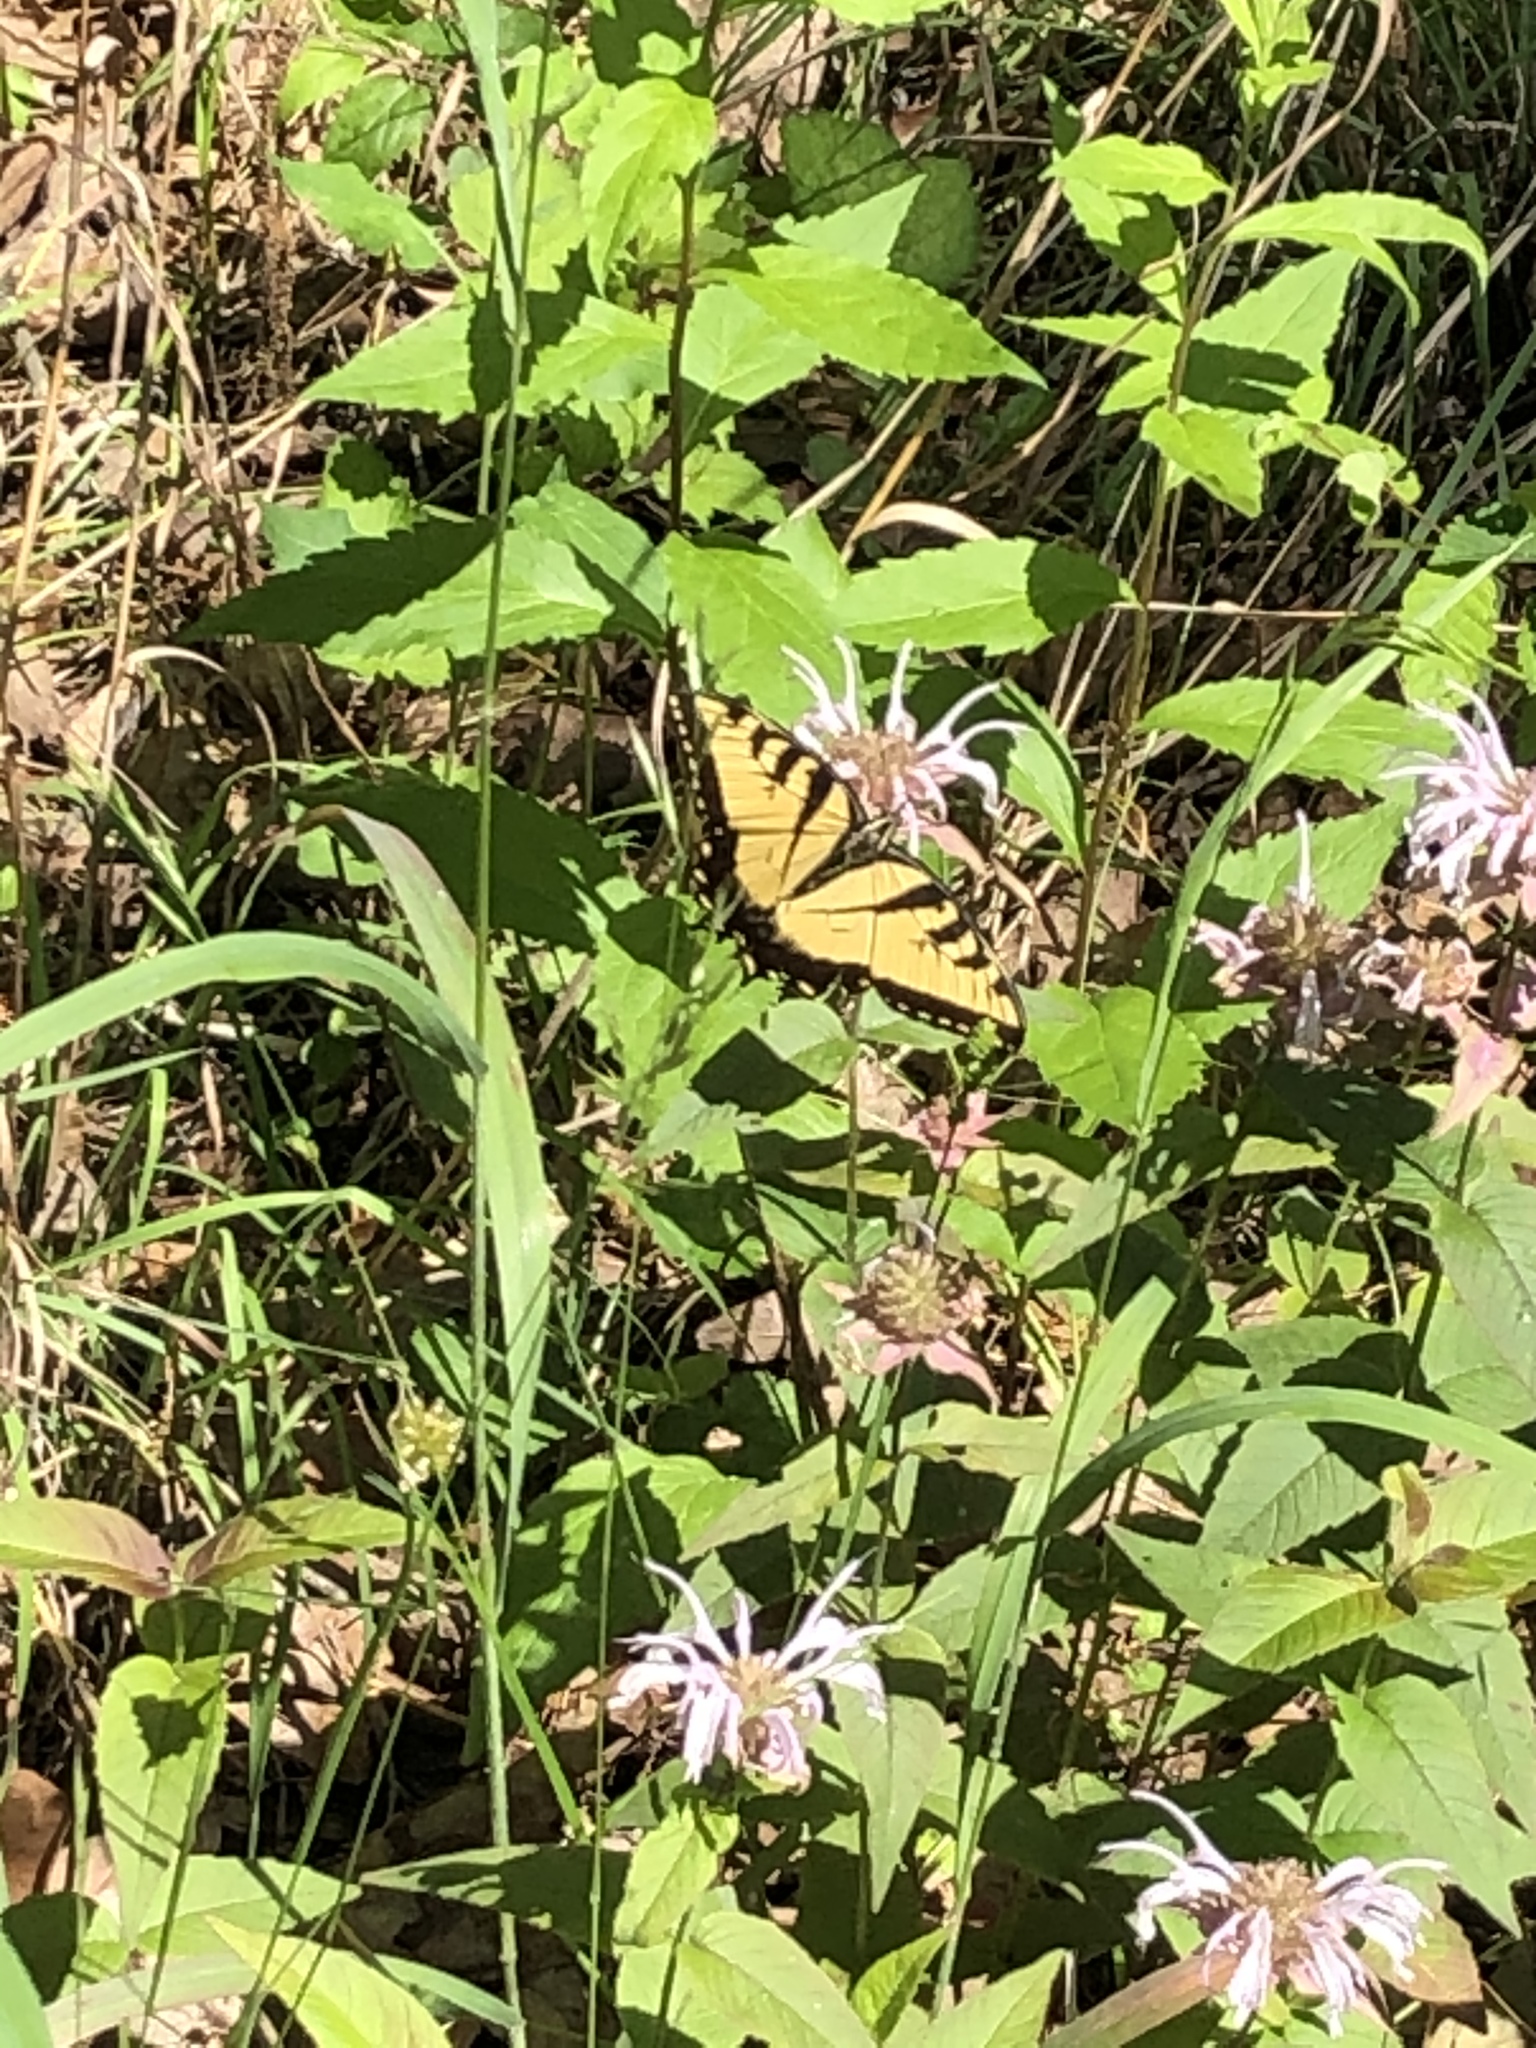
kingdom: Animalia
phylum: Arthropoda
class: Insecta
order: Lepidoptera
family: Papilionidae
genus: Papilio
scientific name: Papilio glaucus
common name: Tiger swallowtail
